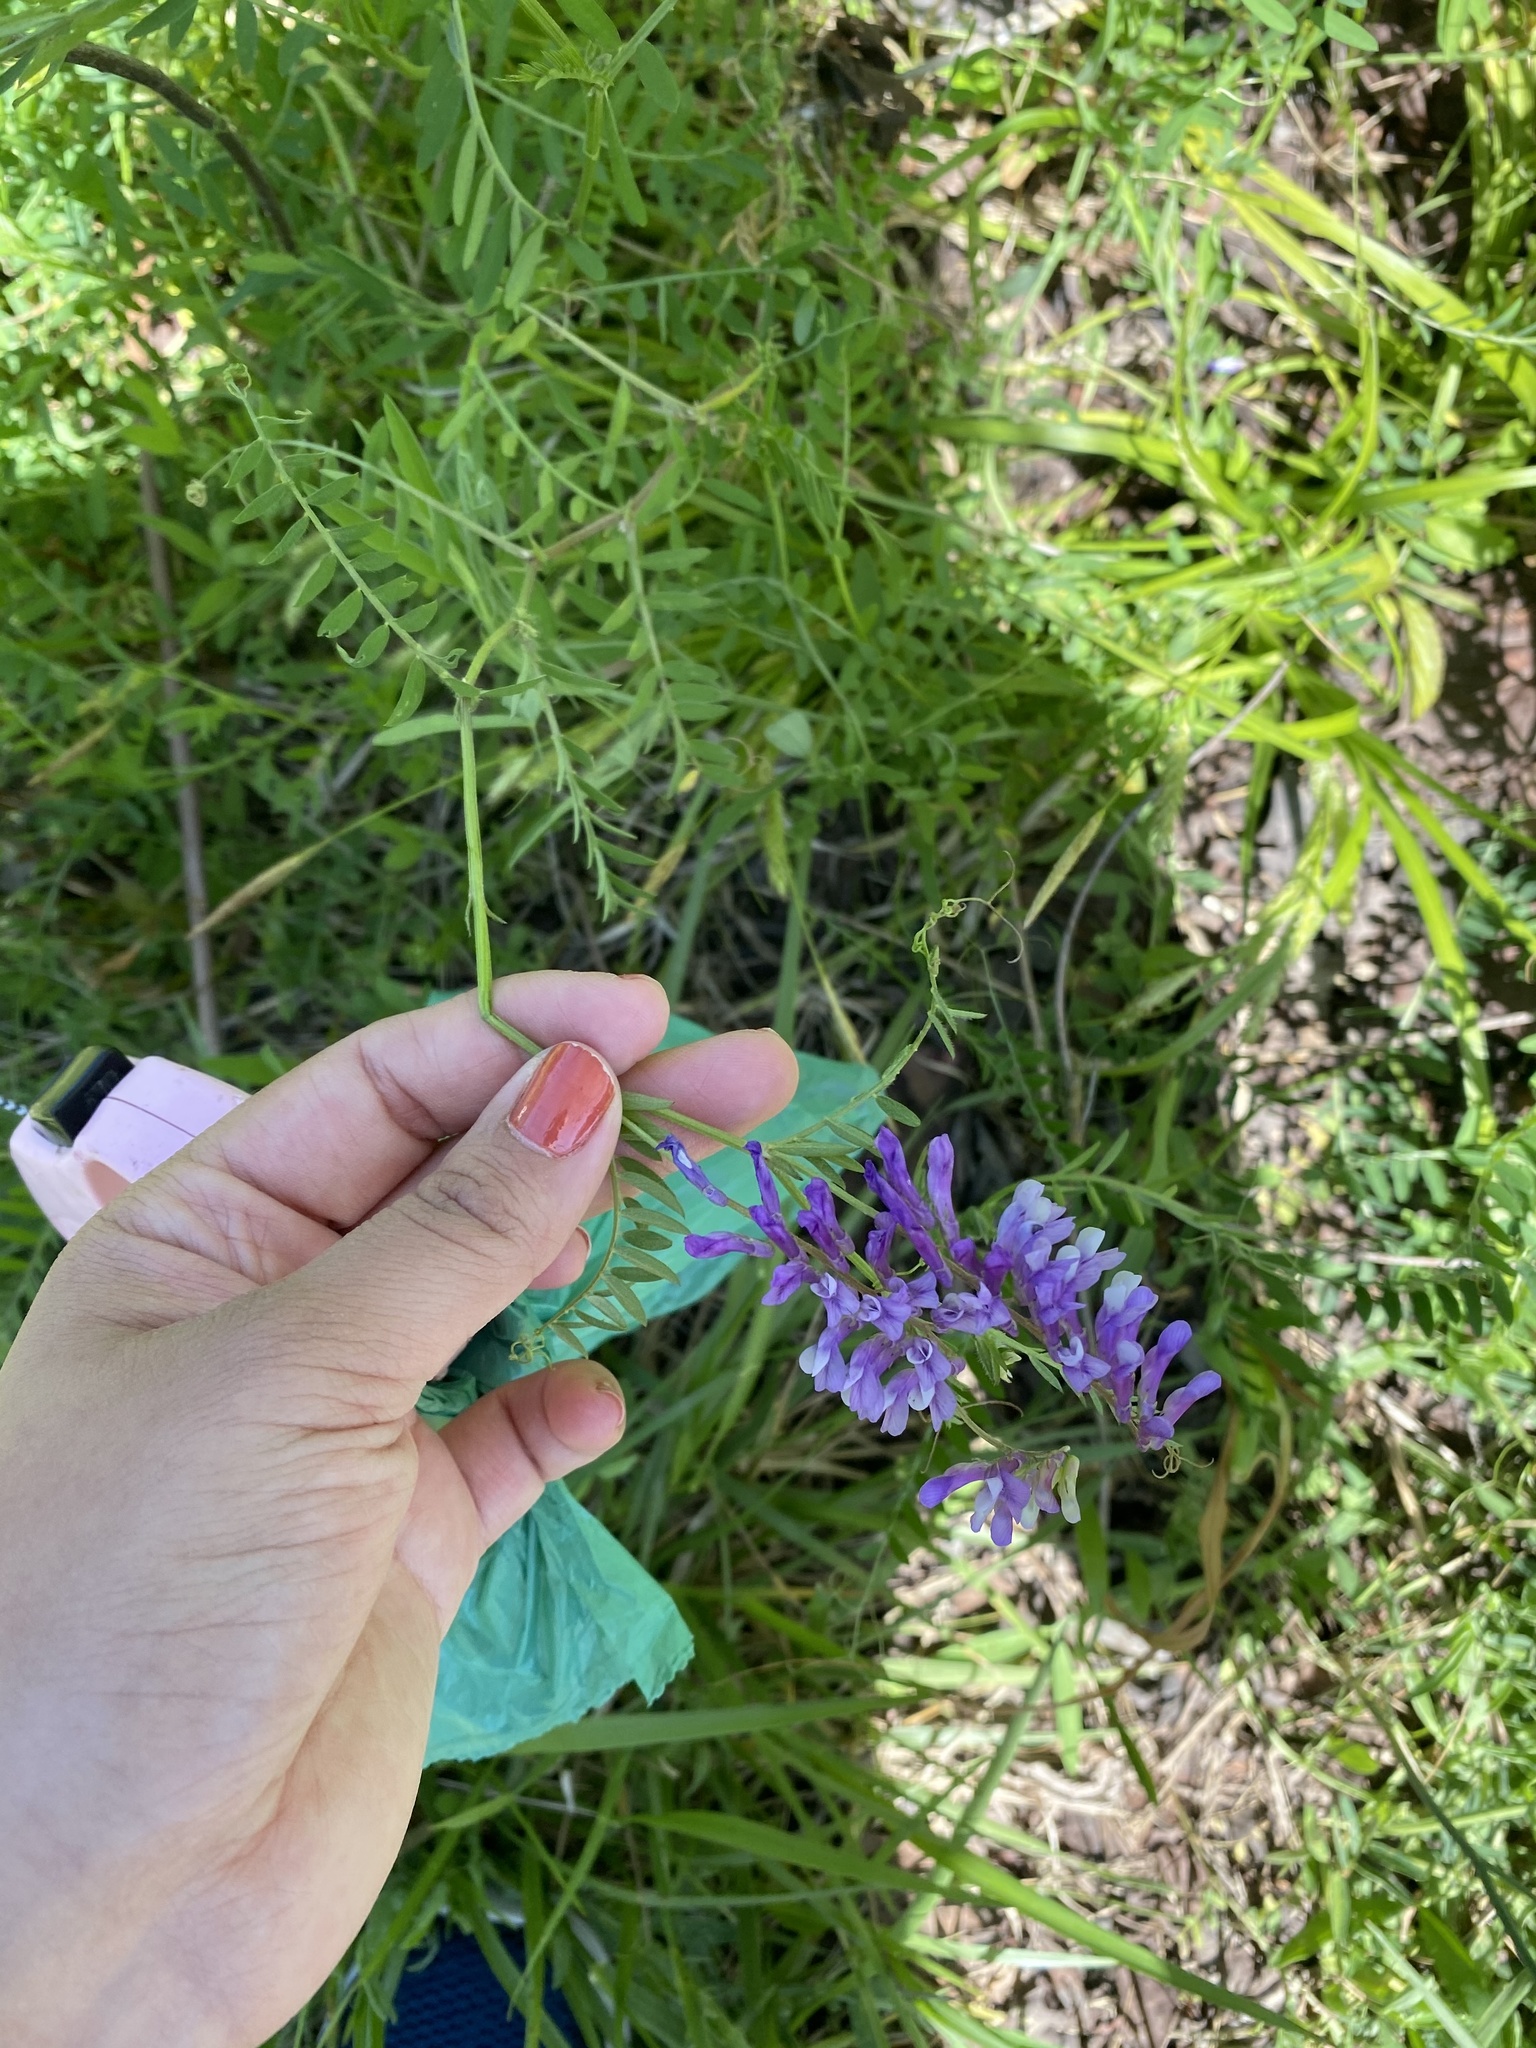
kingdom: Plantae
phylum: Tracheophyta
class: Magnoliopsida
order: Fabales
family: Fabaceae
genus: Vicia
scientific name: Vicia villosa
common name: Fodder vetch
